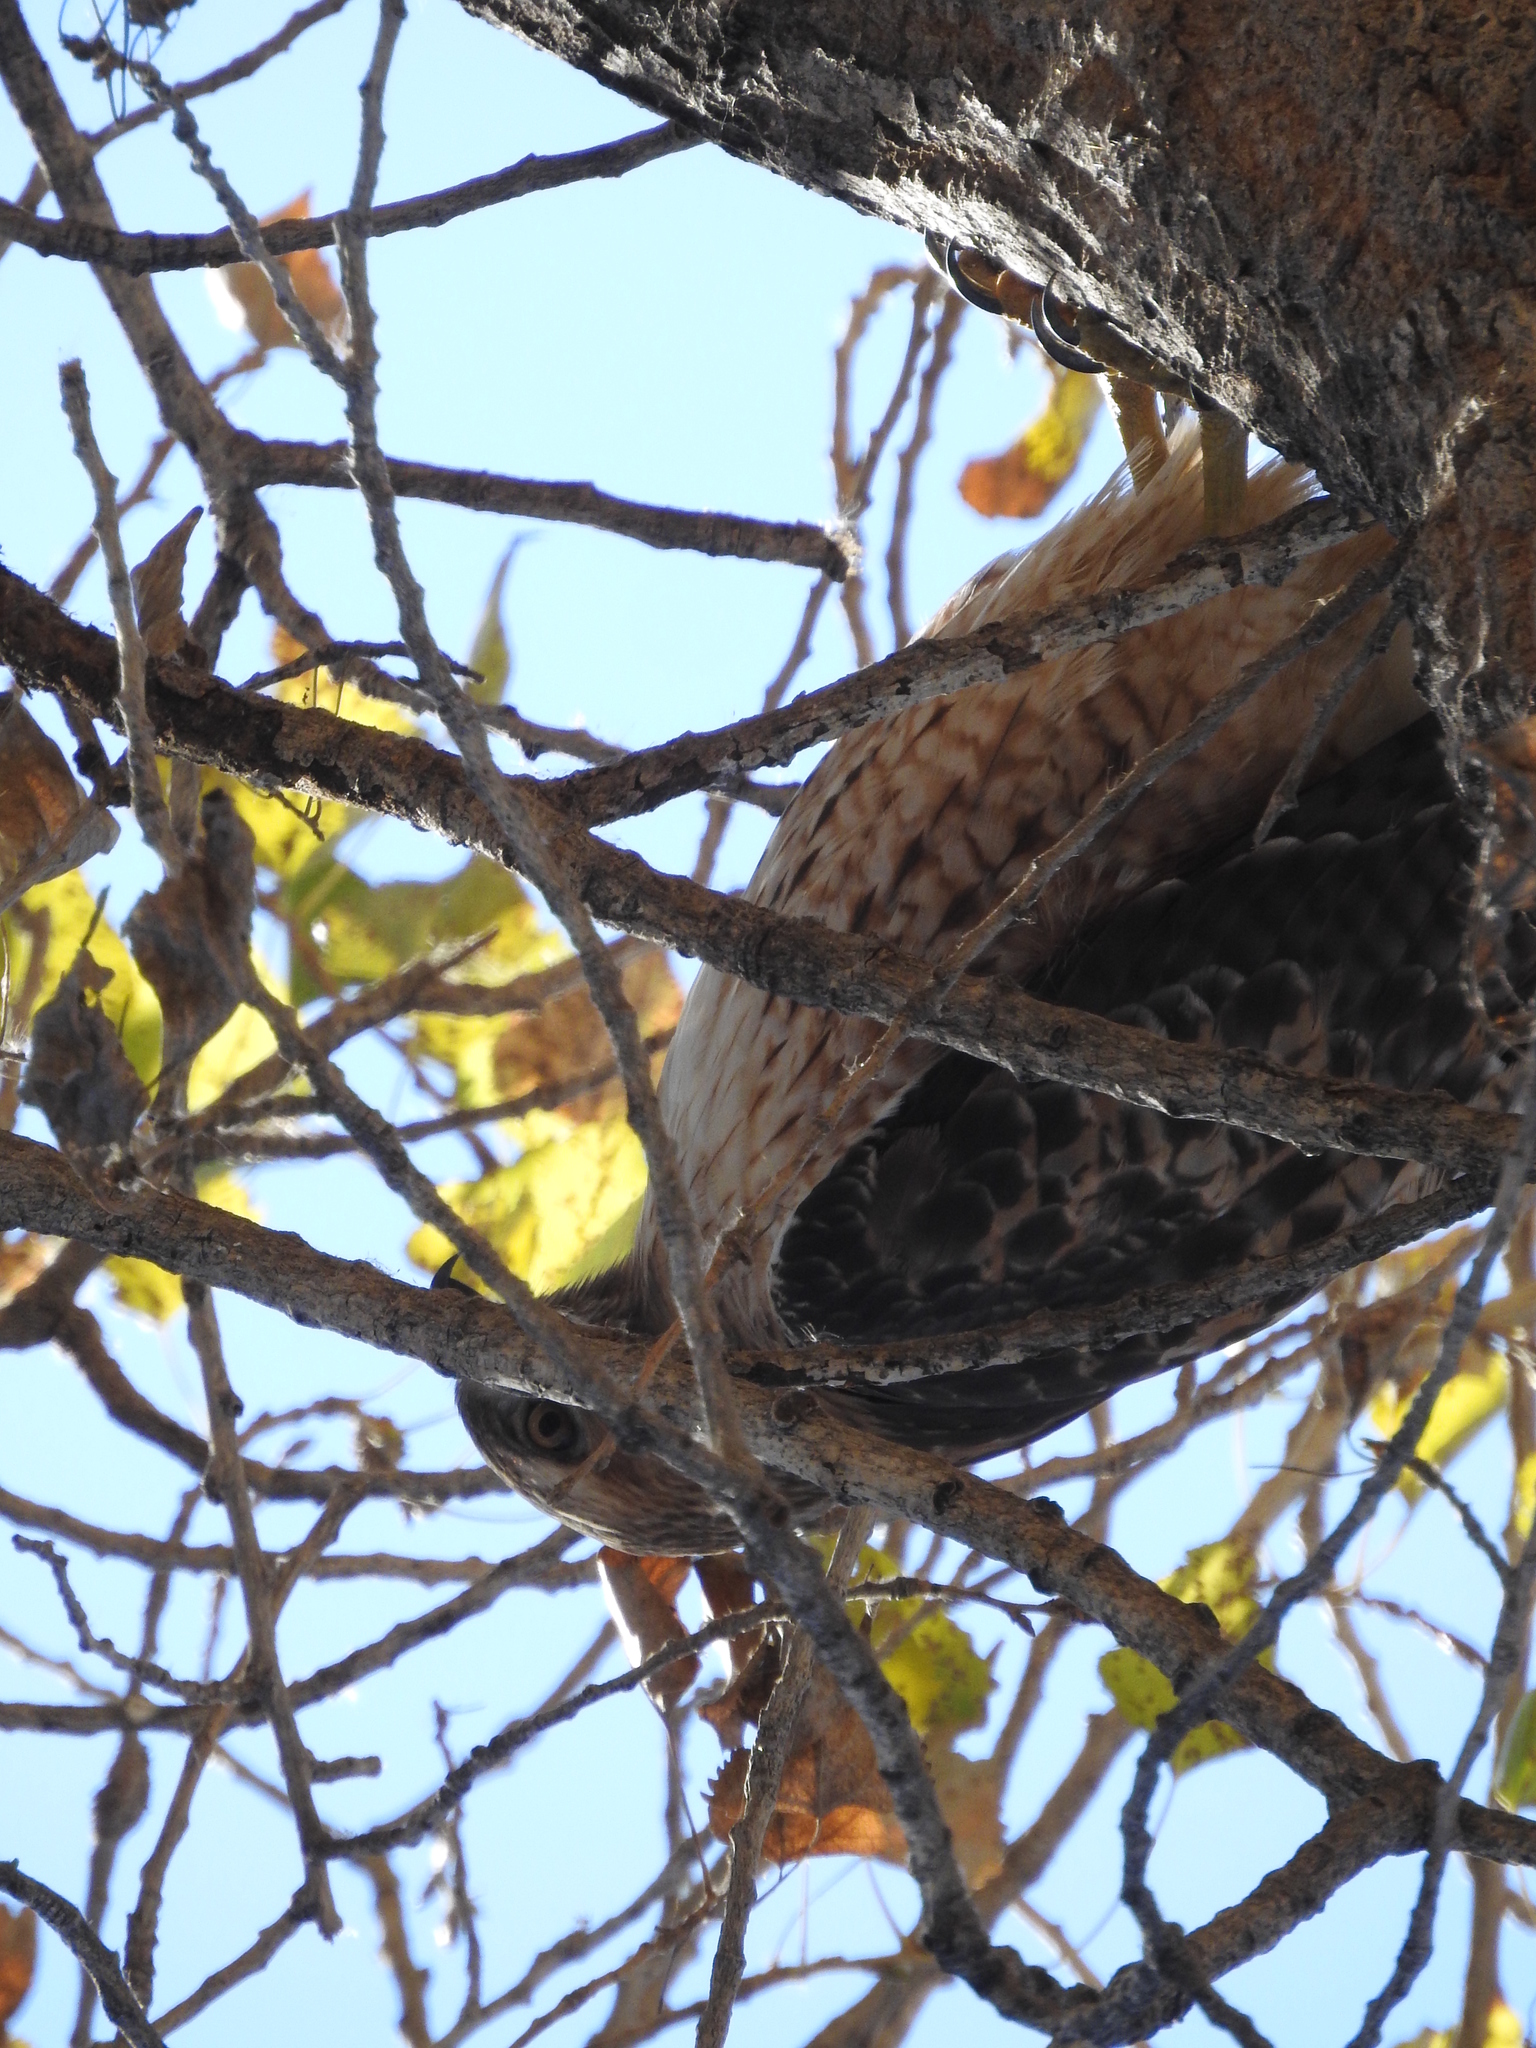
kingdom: Animalia
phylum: Chordata
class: Aves
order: Accipitriformes
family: Accipitridae
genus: Buteo
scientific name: Buteo jamaicensis
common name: Red-tailed hawk
